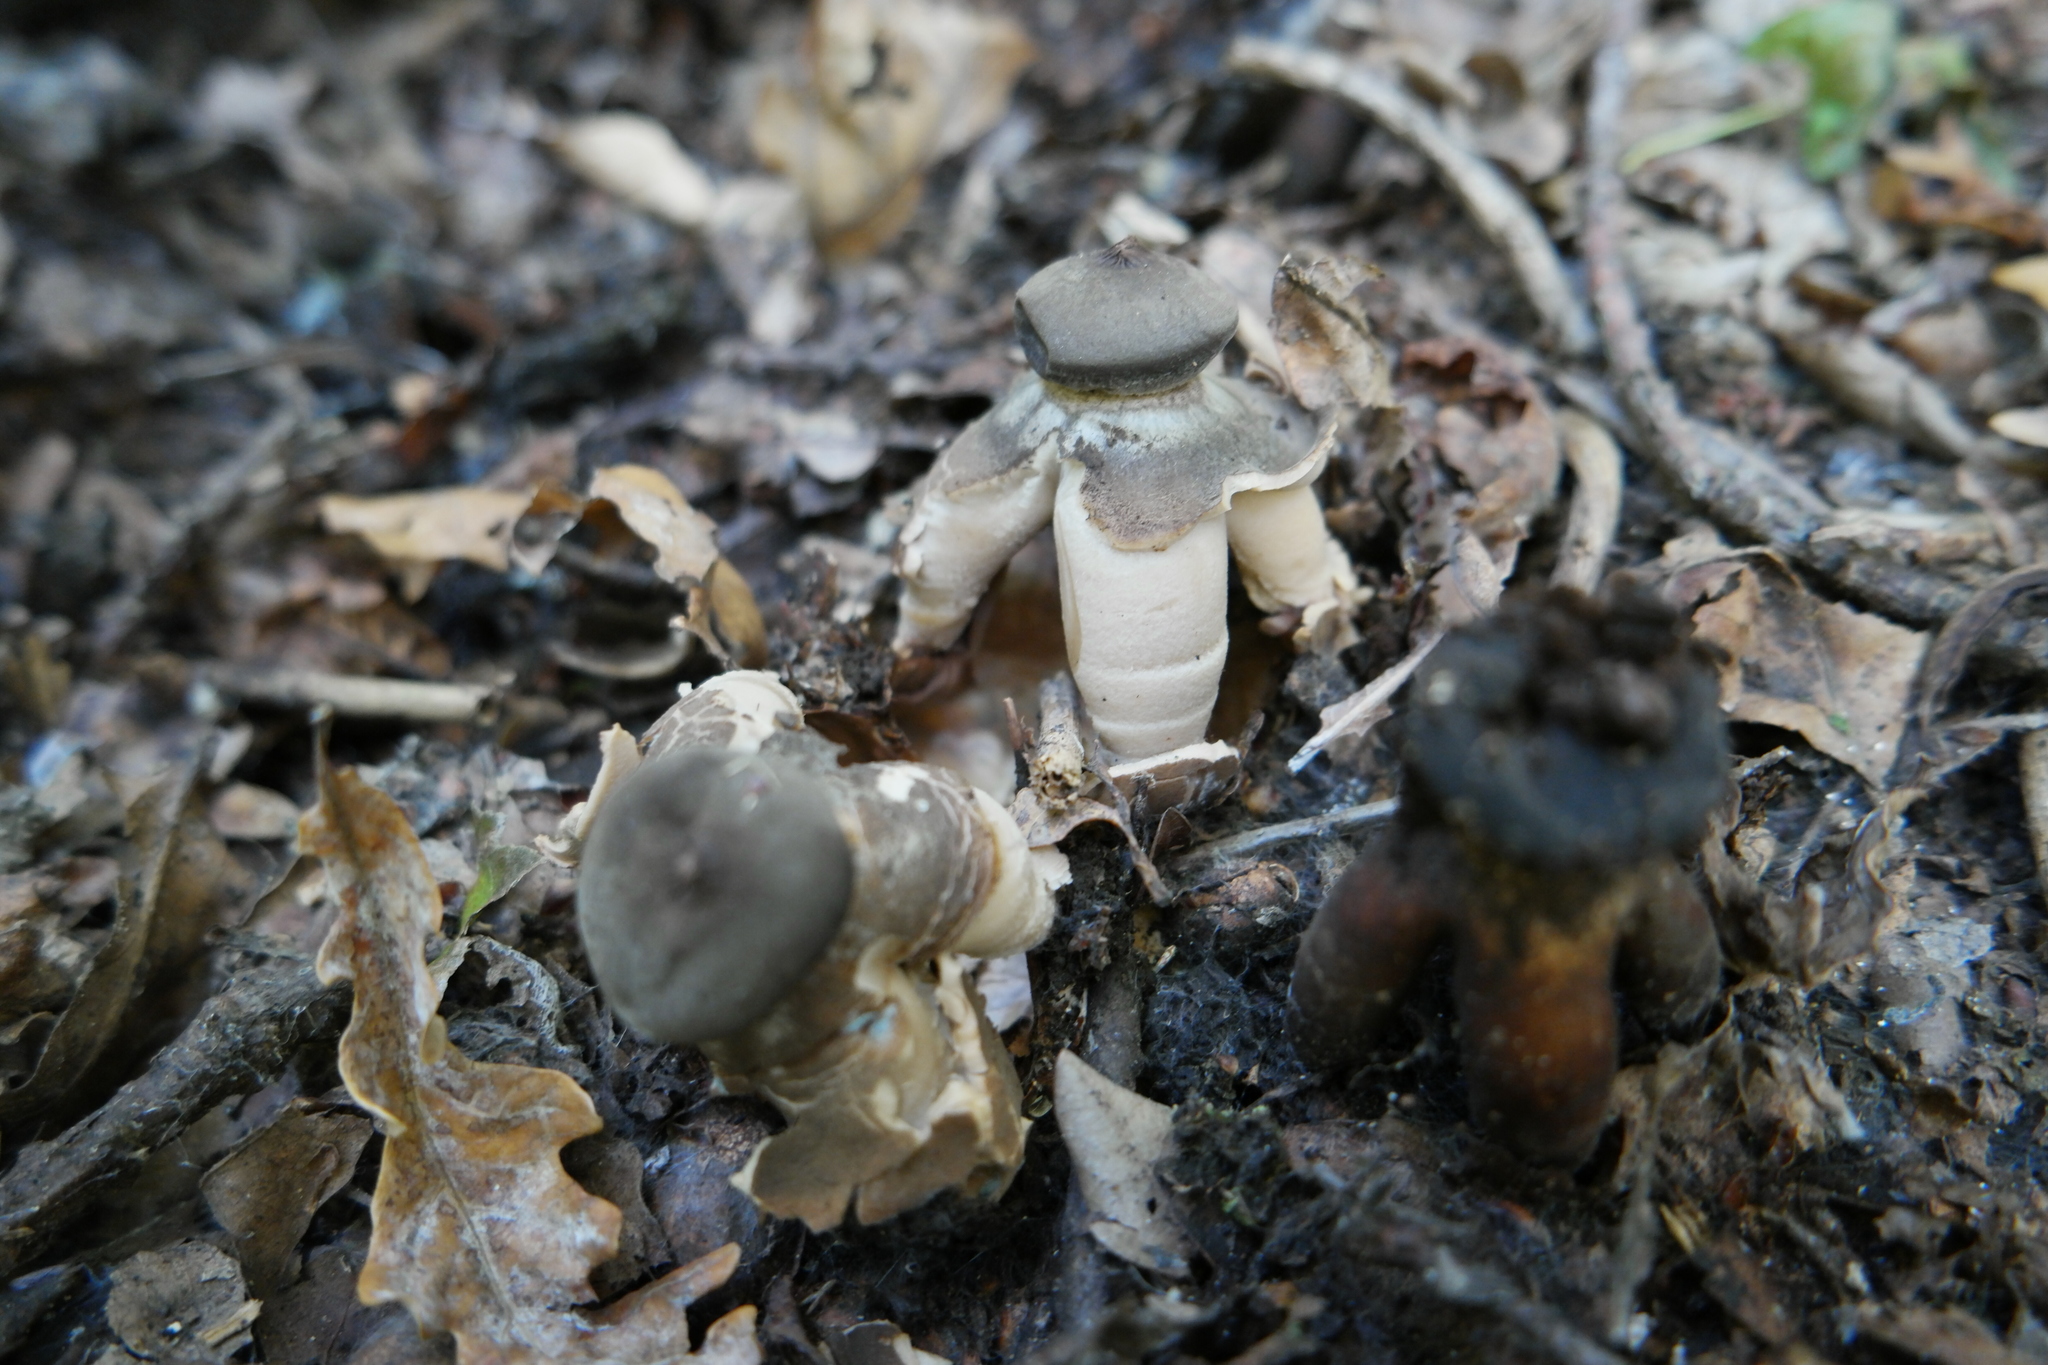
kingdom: Fungi
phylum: Basidiomycota
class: Agaricomycetes
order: Geastrales
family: Geastraceae
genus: Geastrum
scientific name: Geastrum fornicatum
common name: Arched earthstar
